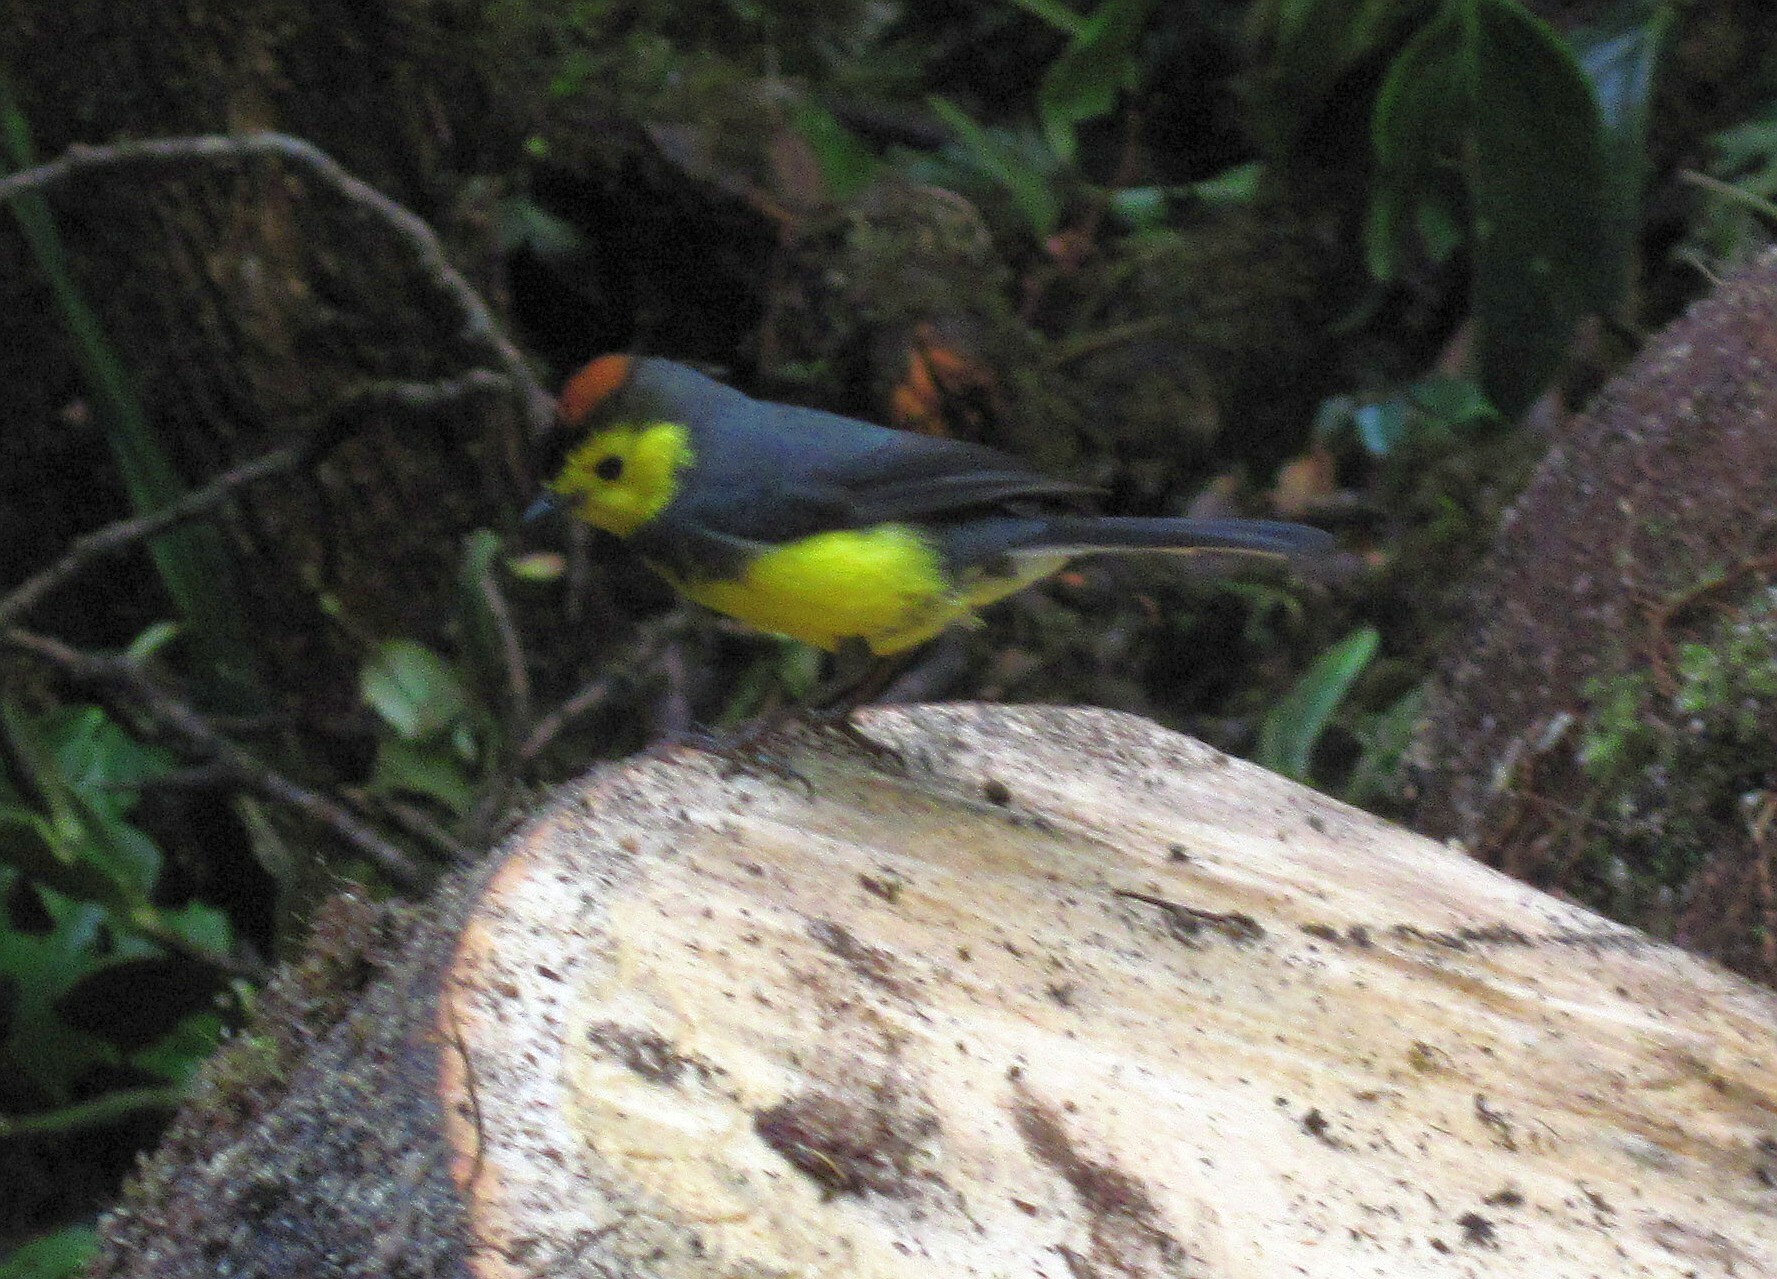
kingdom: Animalia
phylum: Chordata
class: Aves
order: Passeriformes
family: Parulidae
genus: Myioborus
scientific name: Myioborus torquatus
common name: Collared whitestart
